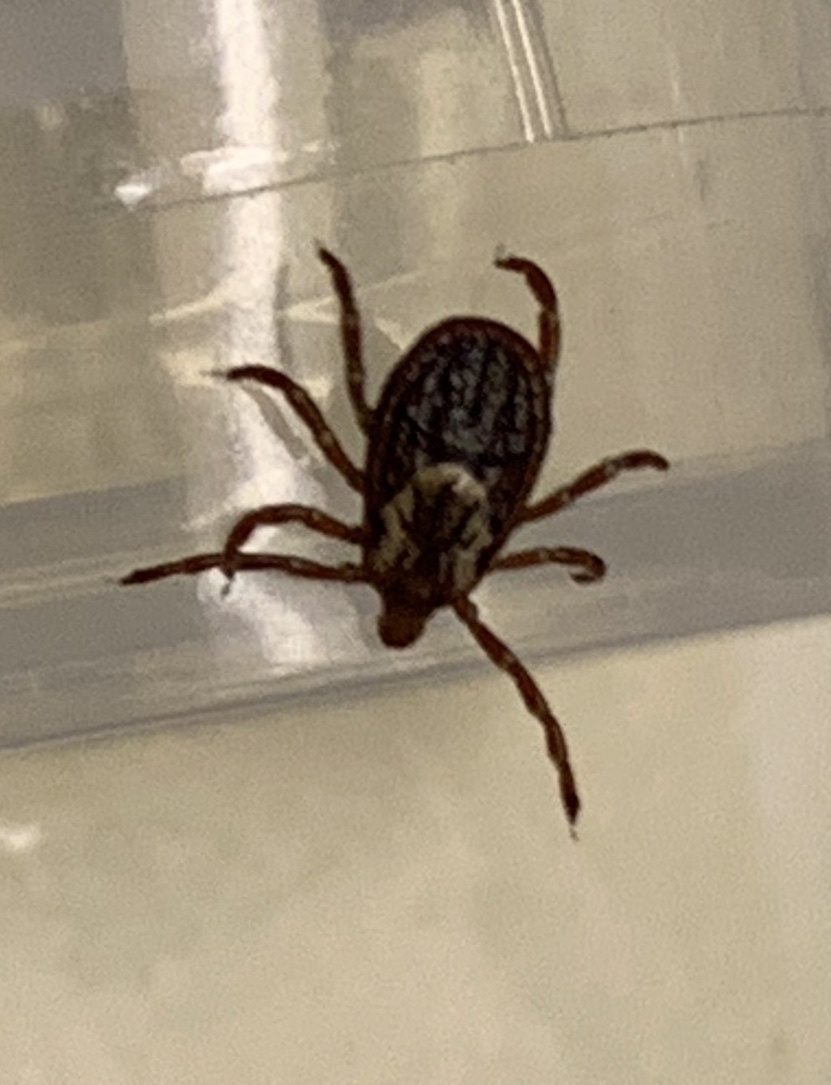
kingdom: Animalia
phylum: Arthropoda
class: Arachnida
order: Ixodida
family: Ixodidae
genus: Dermacentor
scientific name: Dermacentor variabilis
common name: American dog tick
